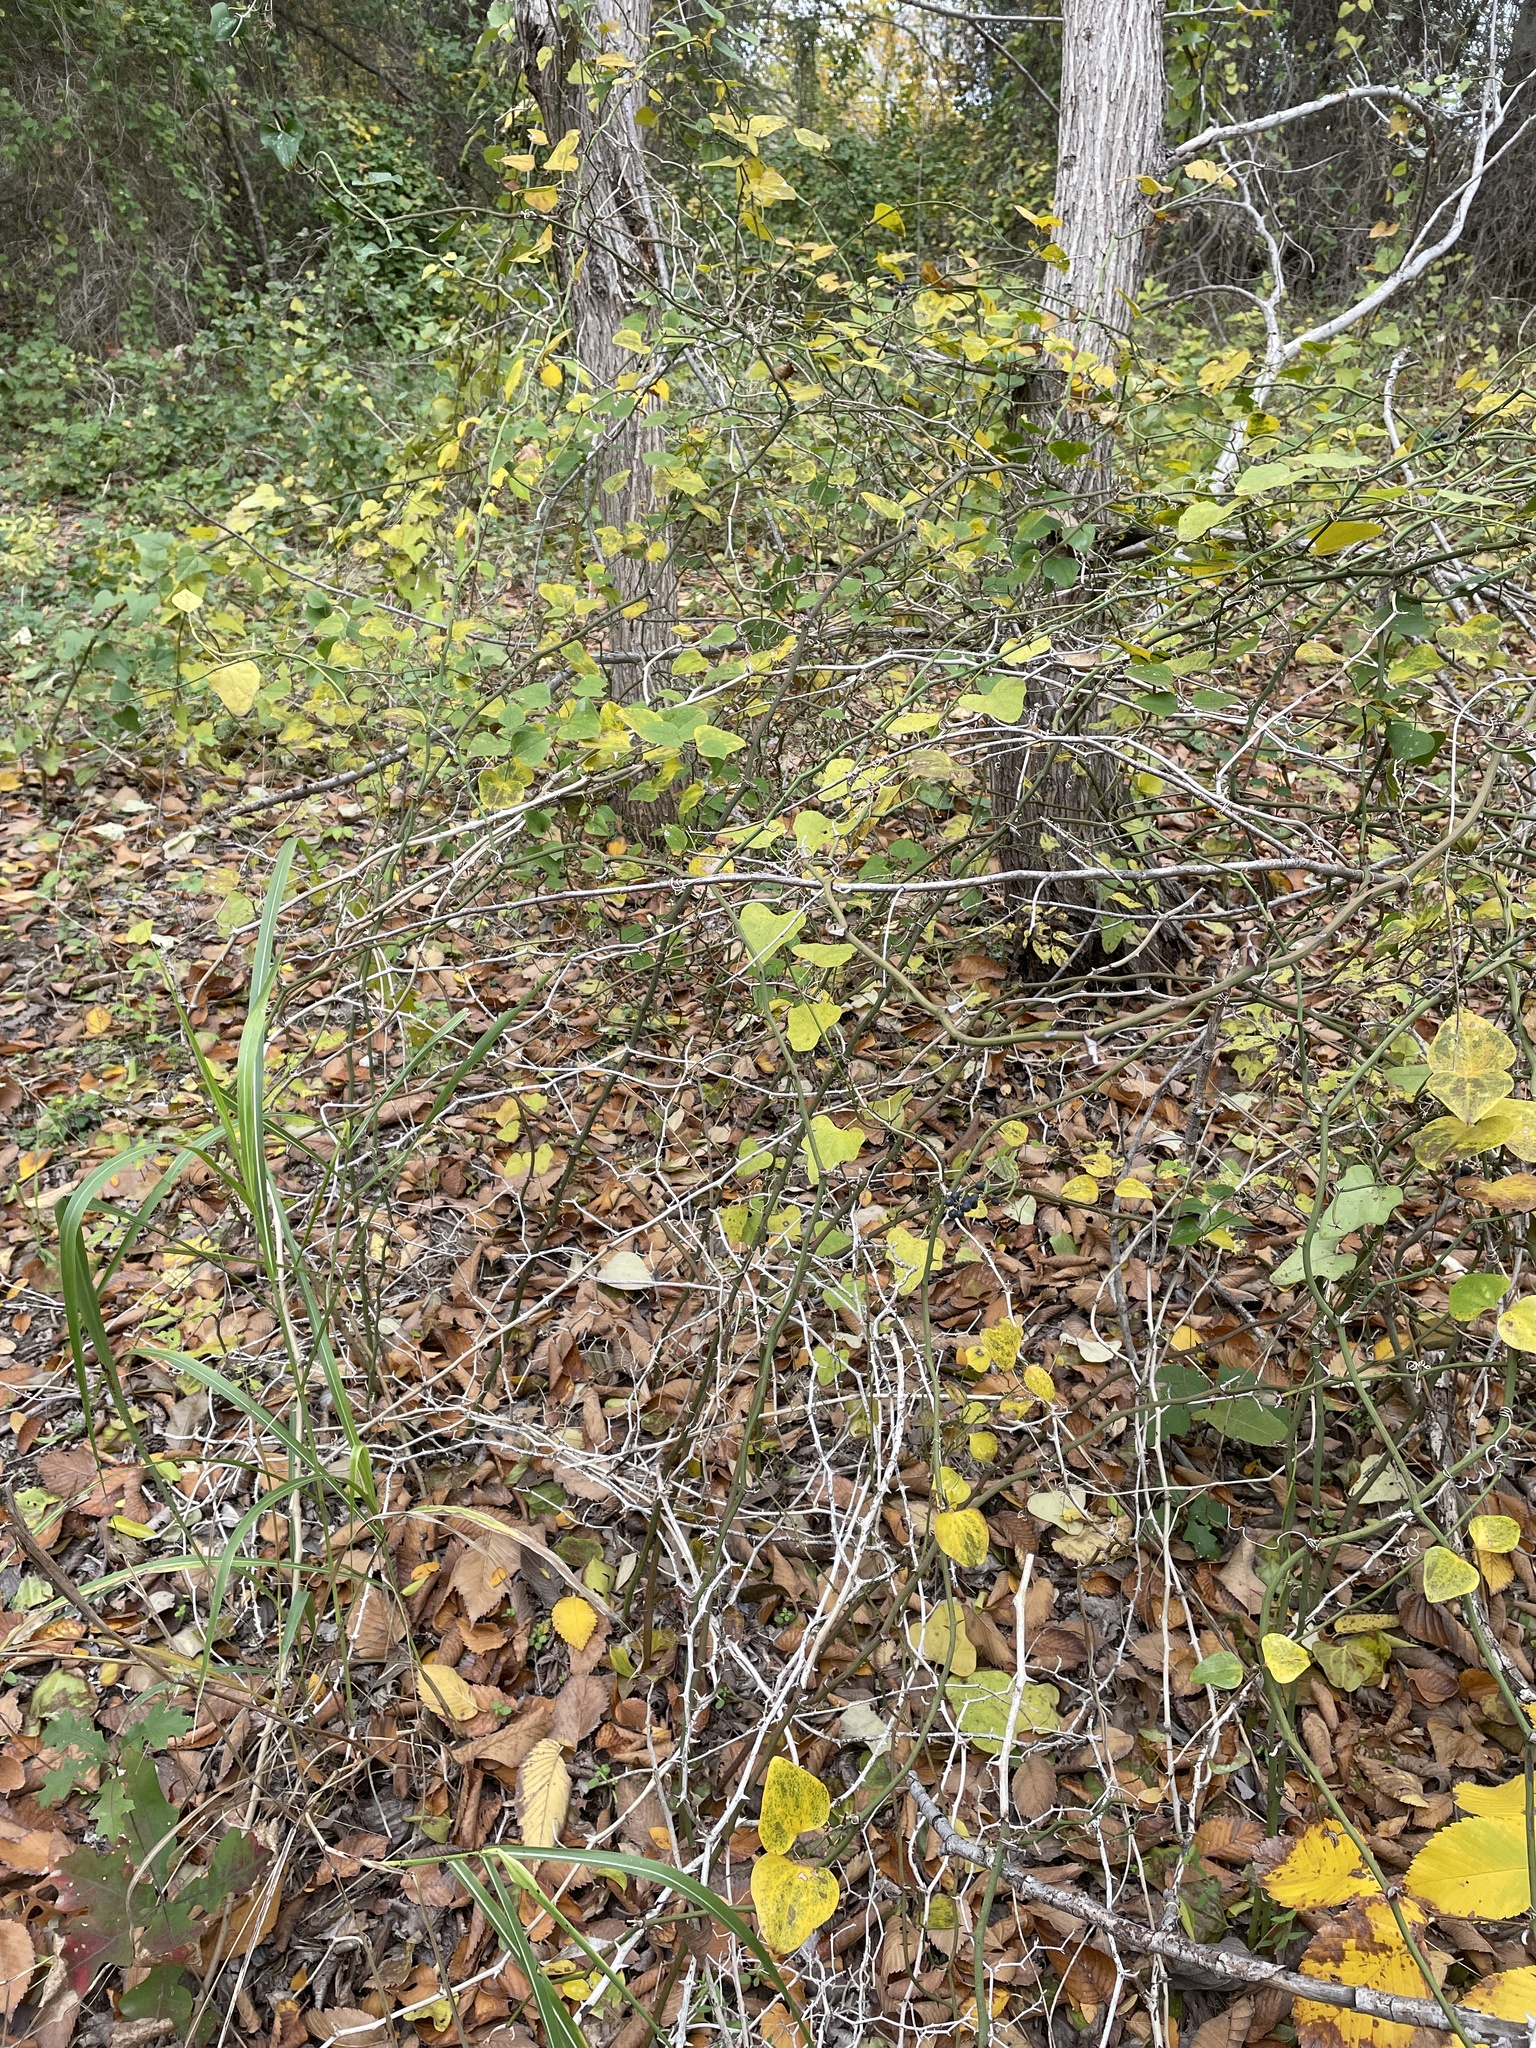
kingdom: Plantae
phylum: Tracheophyta
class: Liliopsida
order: Liliales
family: Smilacaceae
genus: Smilax
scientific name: Smilax bona-nox
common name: Catbrier
